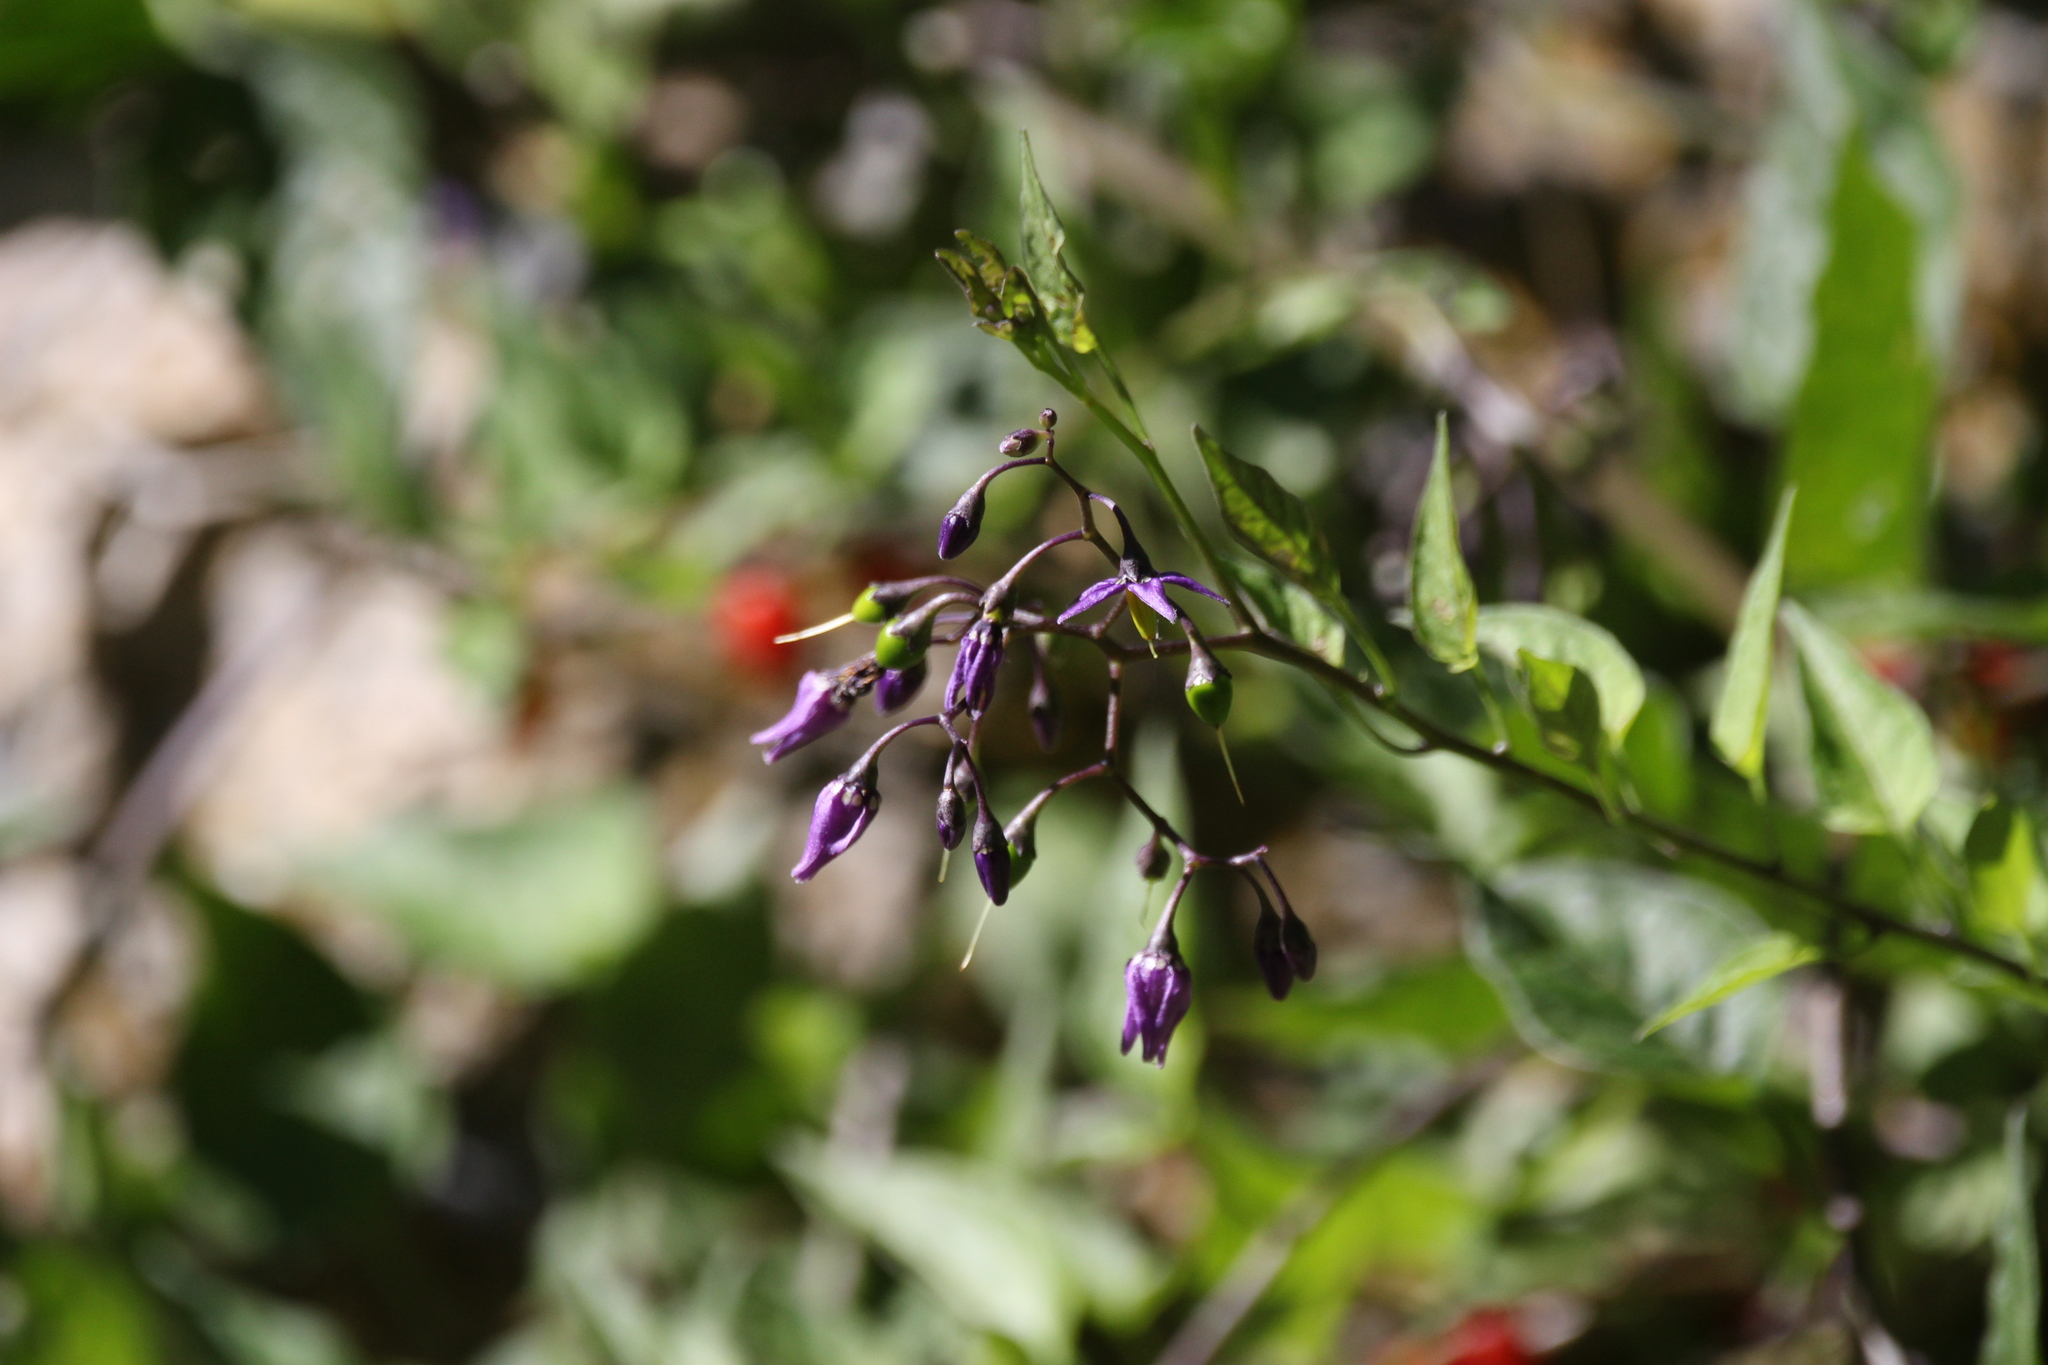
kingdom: Plantae
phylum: Tracheophyta
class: Magnoliopsida
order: Solanales
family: Solanaceae
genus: Solanum
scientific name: Solanum dulcamara
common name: Climbing nightshade
